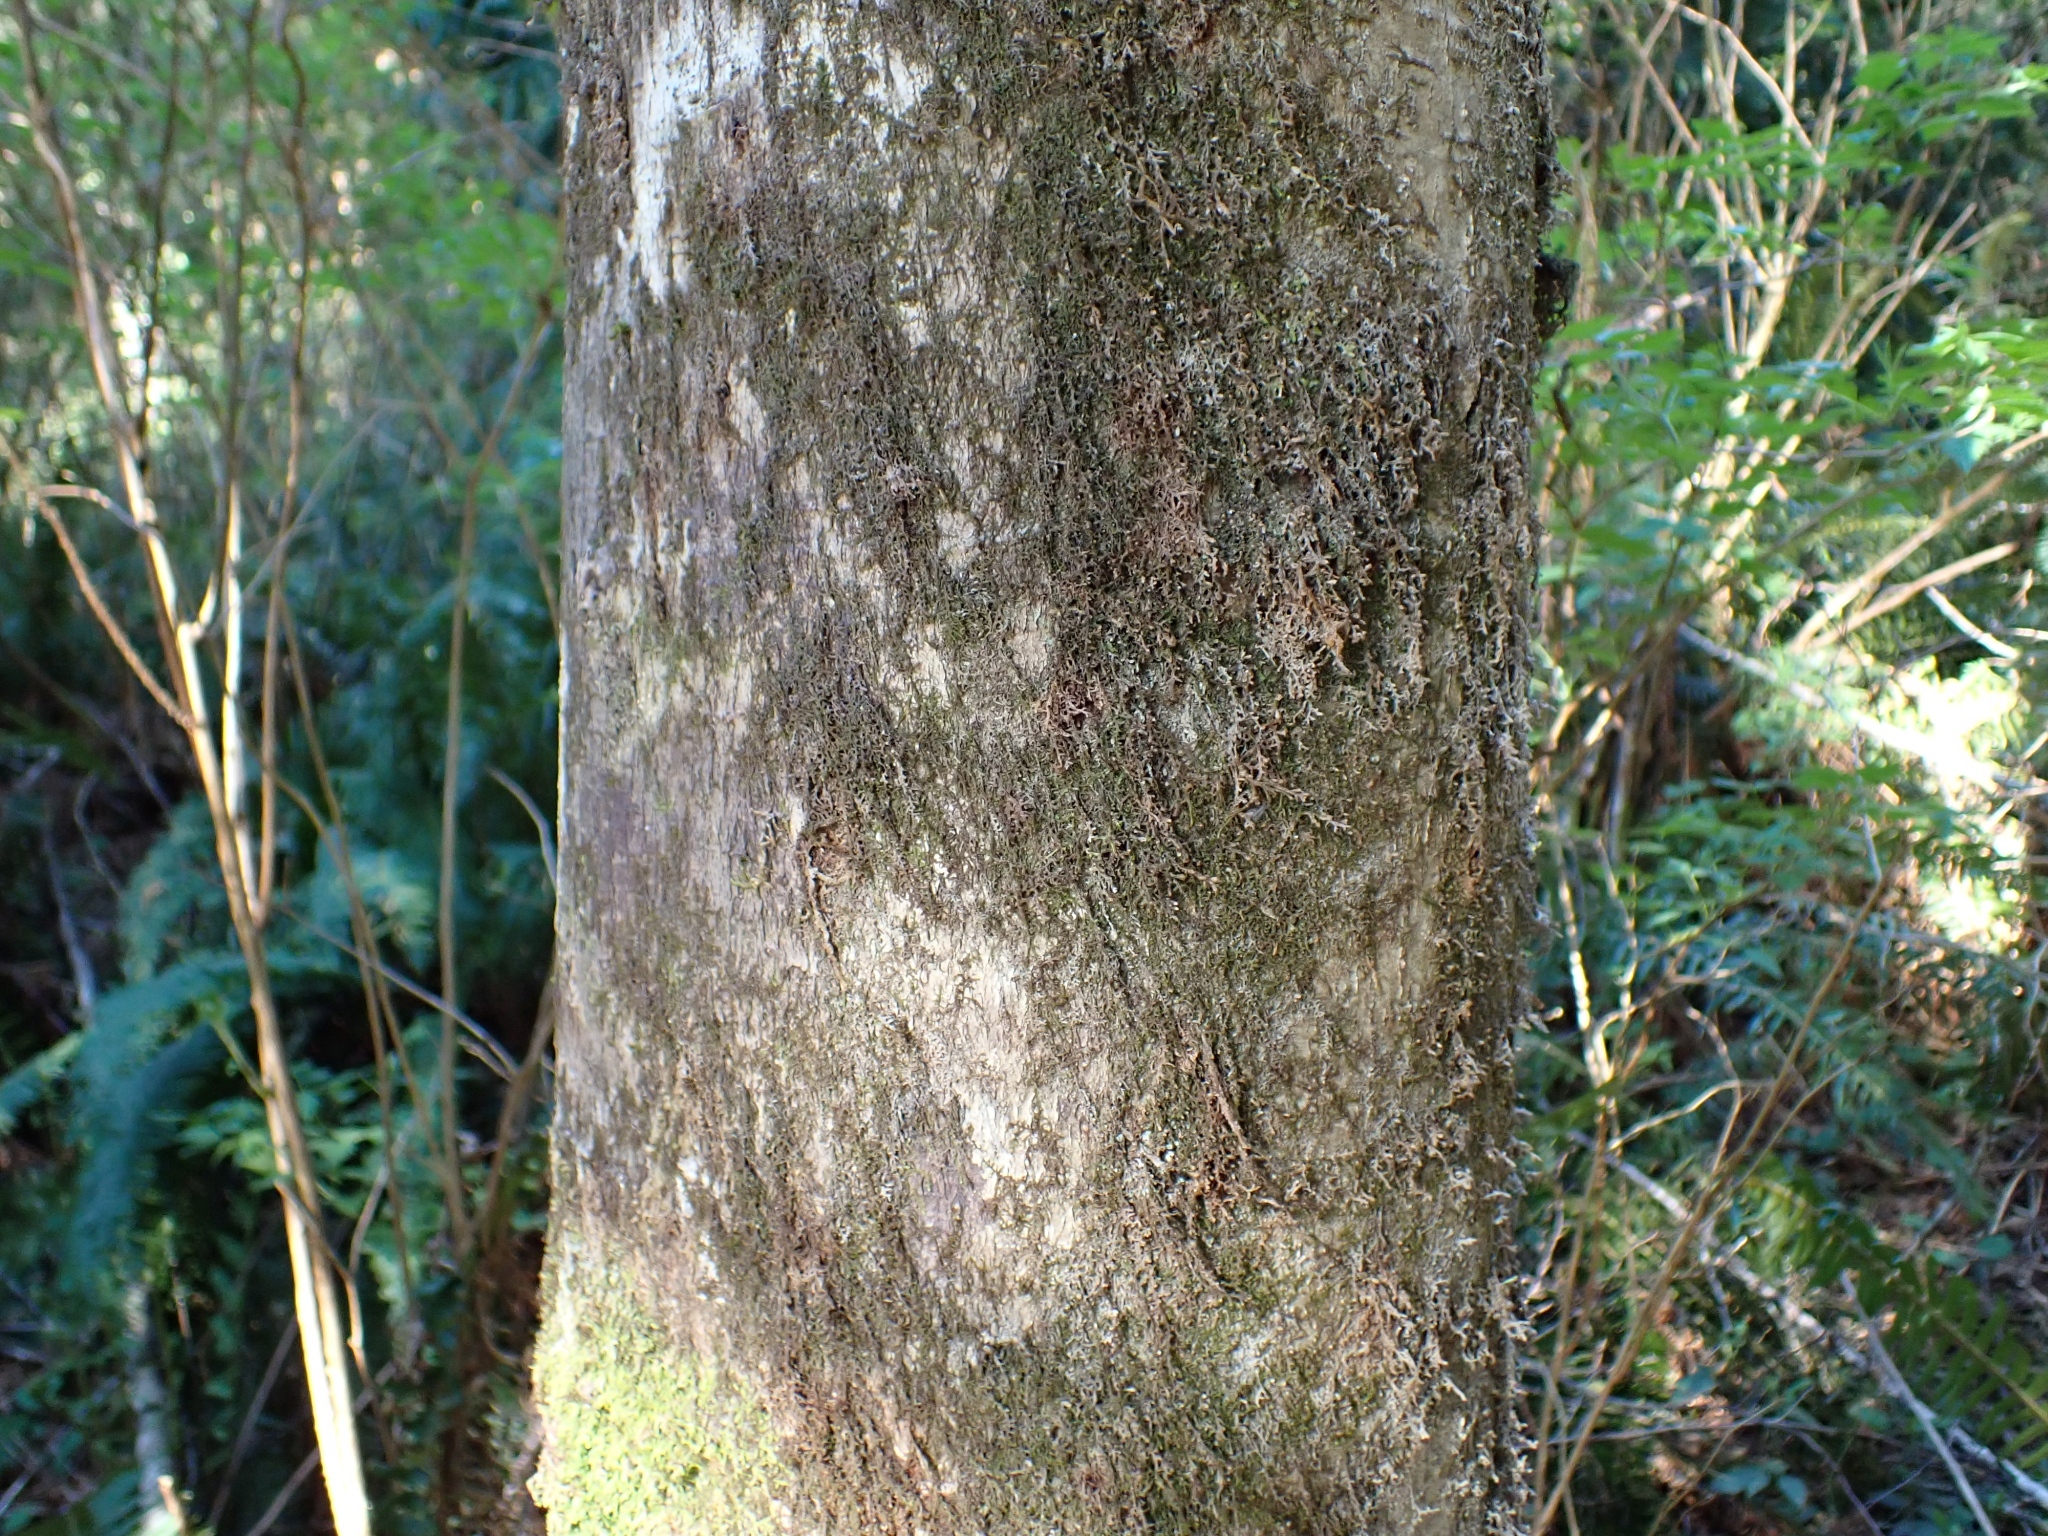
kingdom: Plantae
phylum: Tracheophyta
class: Magnoliopsida
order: Fagales
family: Betulaceae
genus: Alnus
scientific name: Alnus rubra
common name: Red alder
